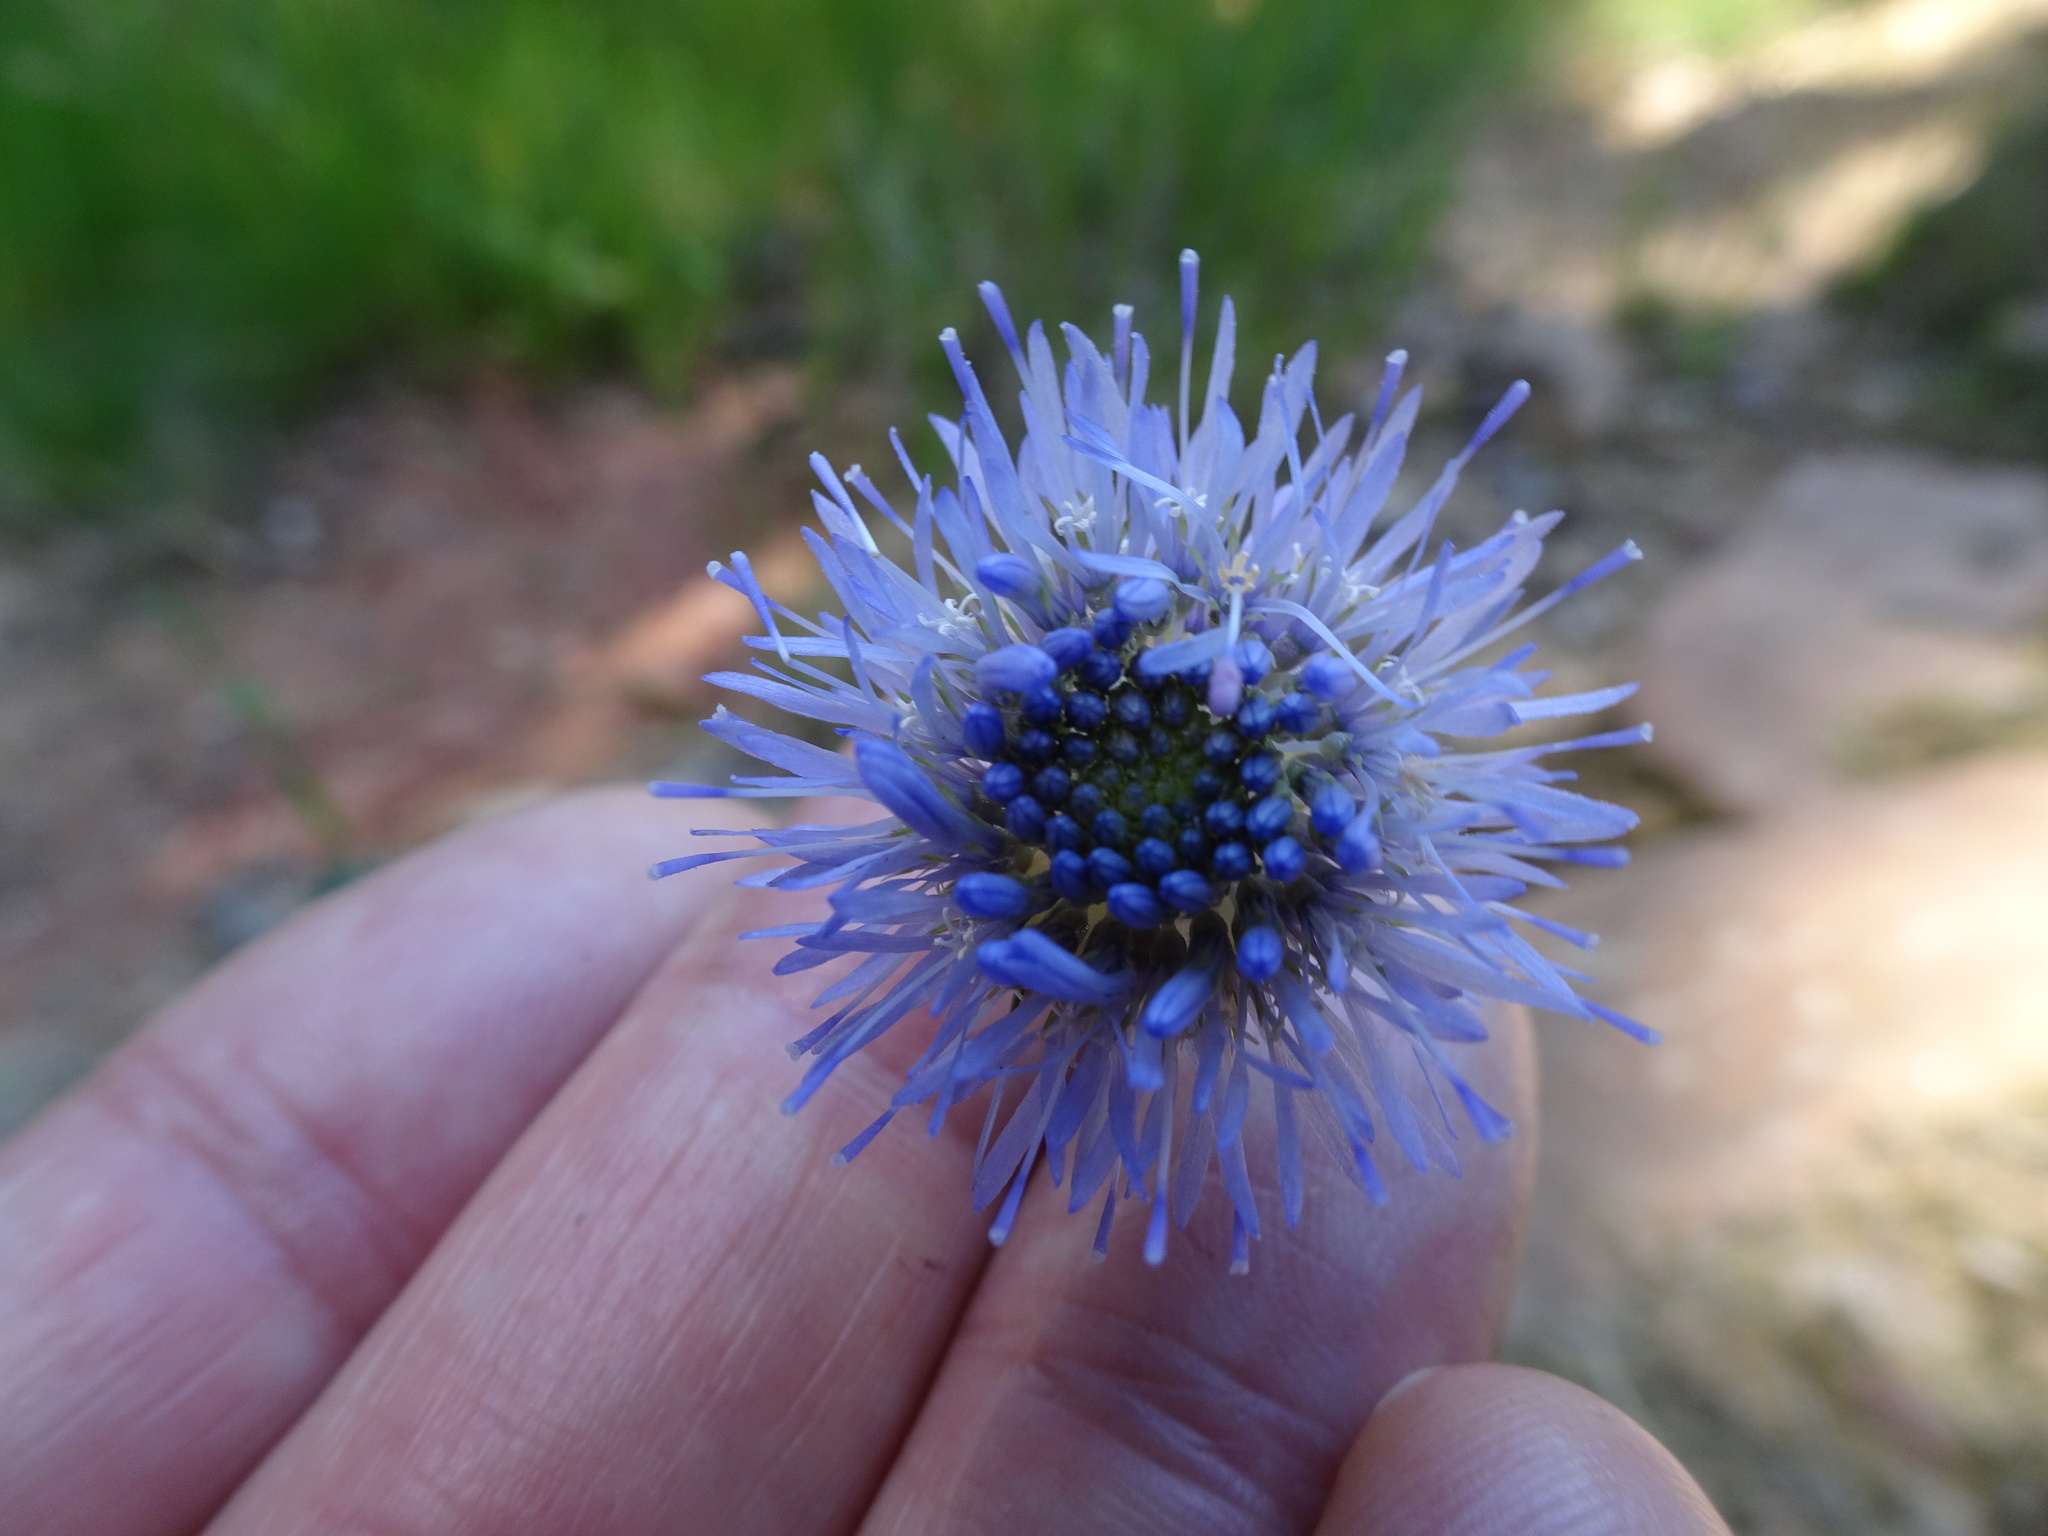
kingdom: Plantae
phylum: Tracheophyta
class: Magnoliopsida
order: Asterales
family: Campanulaceae
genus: Jasione
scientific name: Jasione montana
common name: Sheep's-bit
